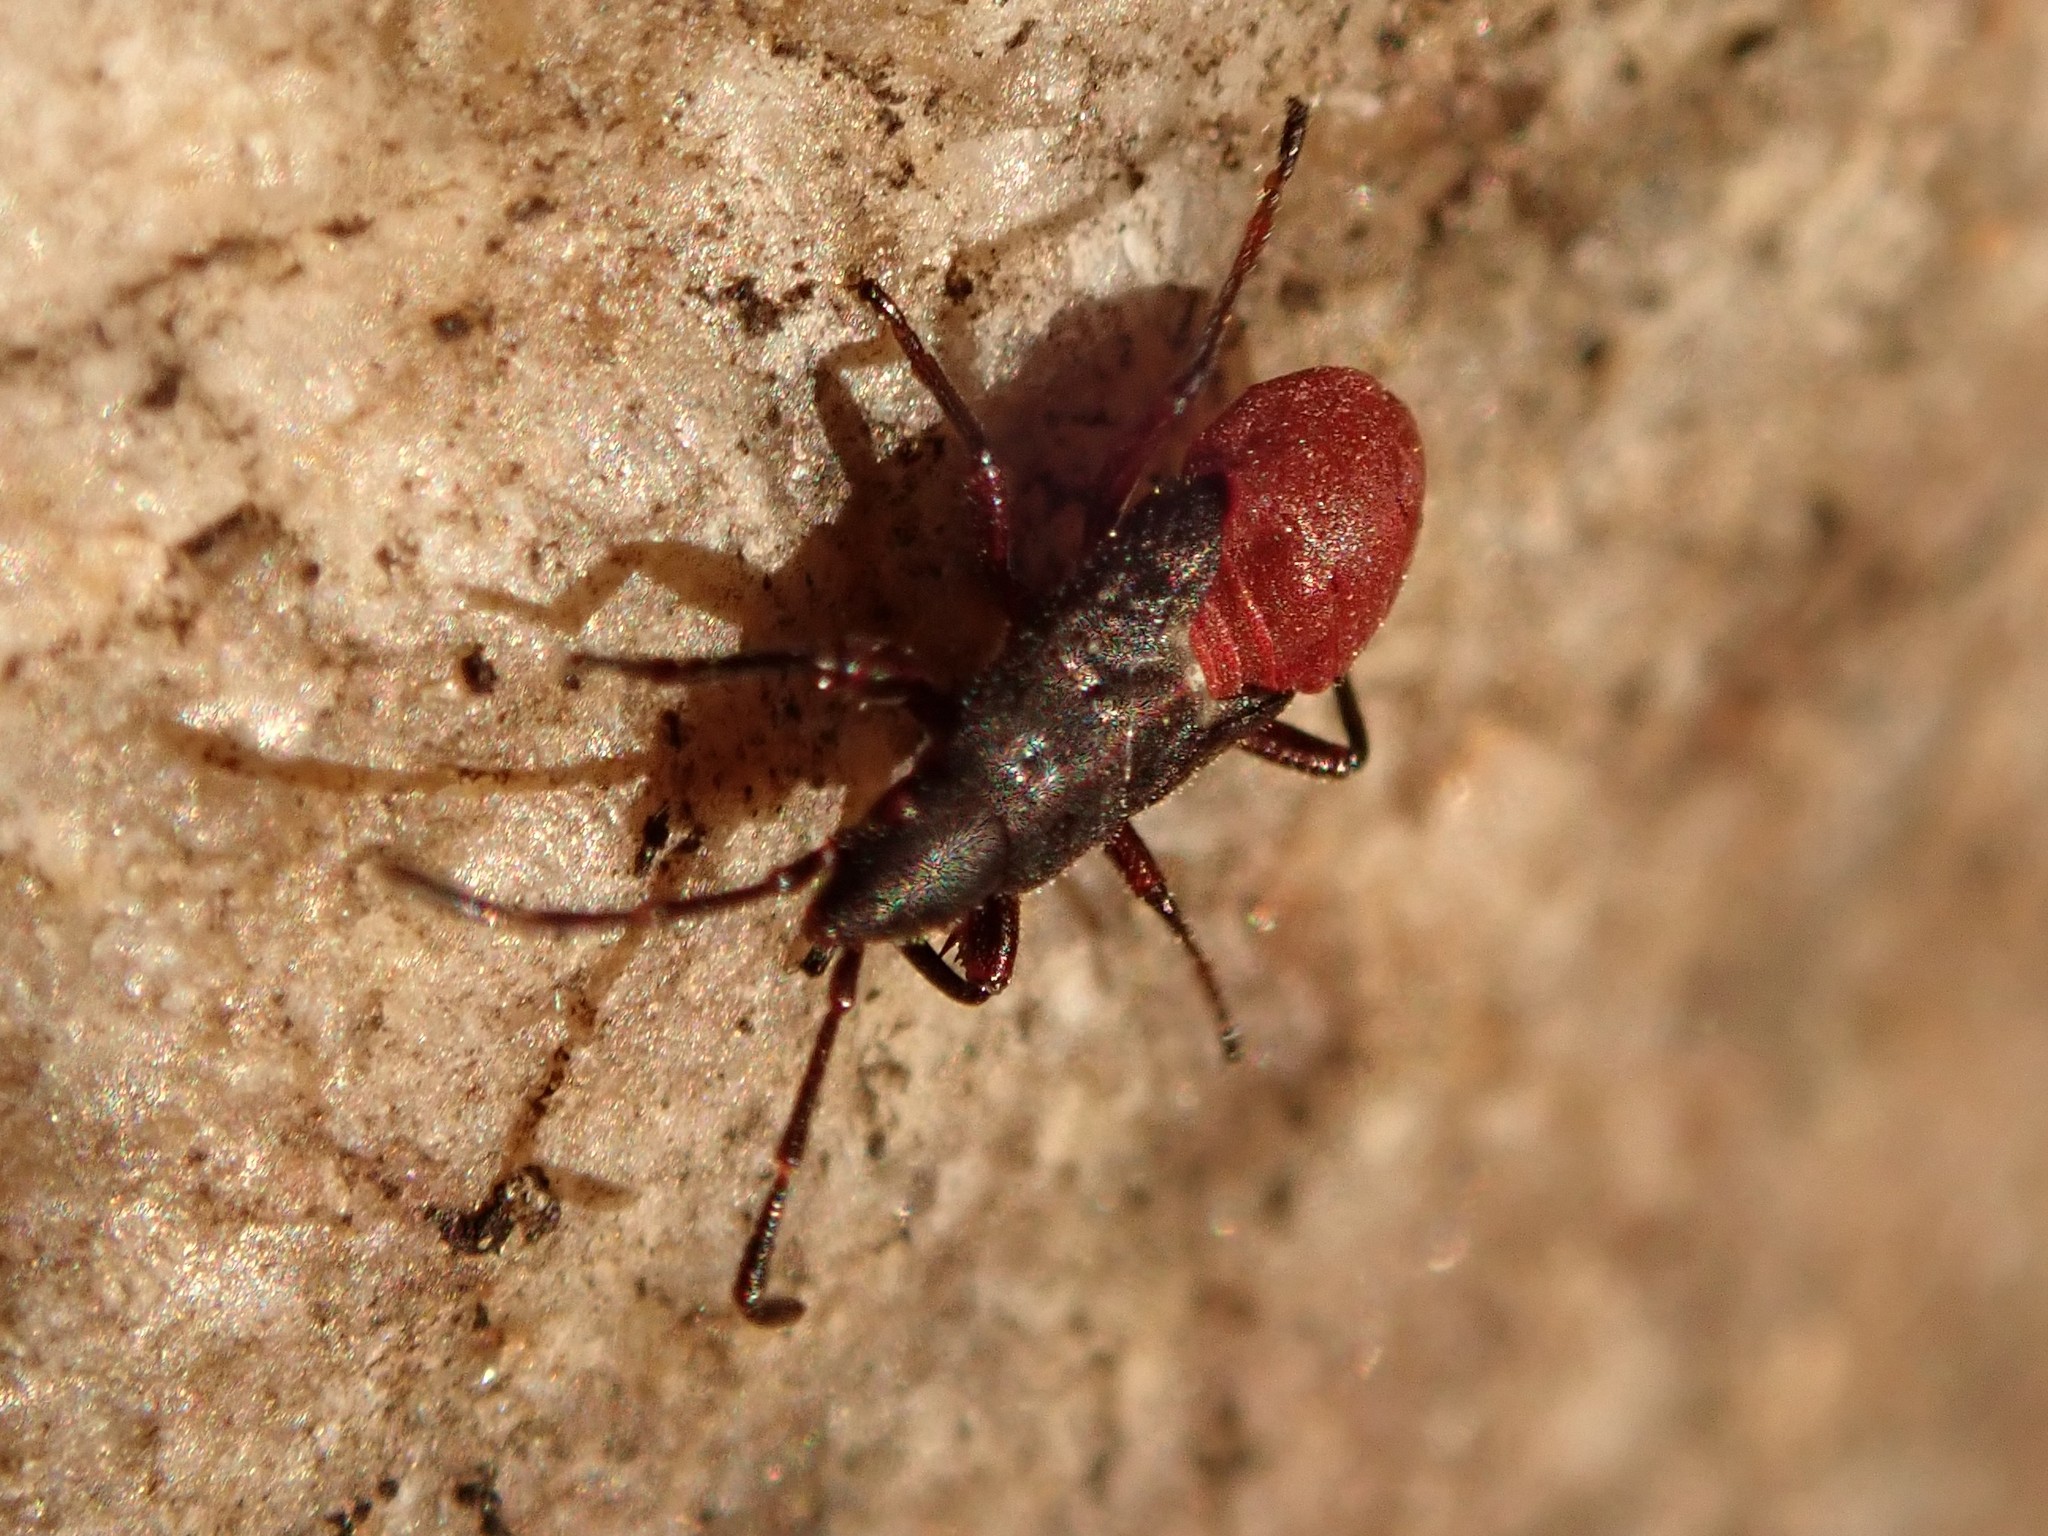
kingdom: Animalia
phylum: Arthropoda
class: Insecta
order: Hemiptera
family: Oxycarenidae
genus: Oxycarenus
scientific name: Oxycarenus lavaterae
